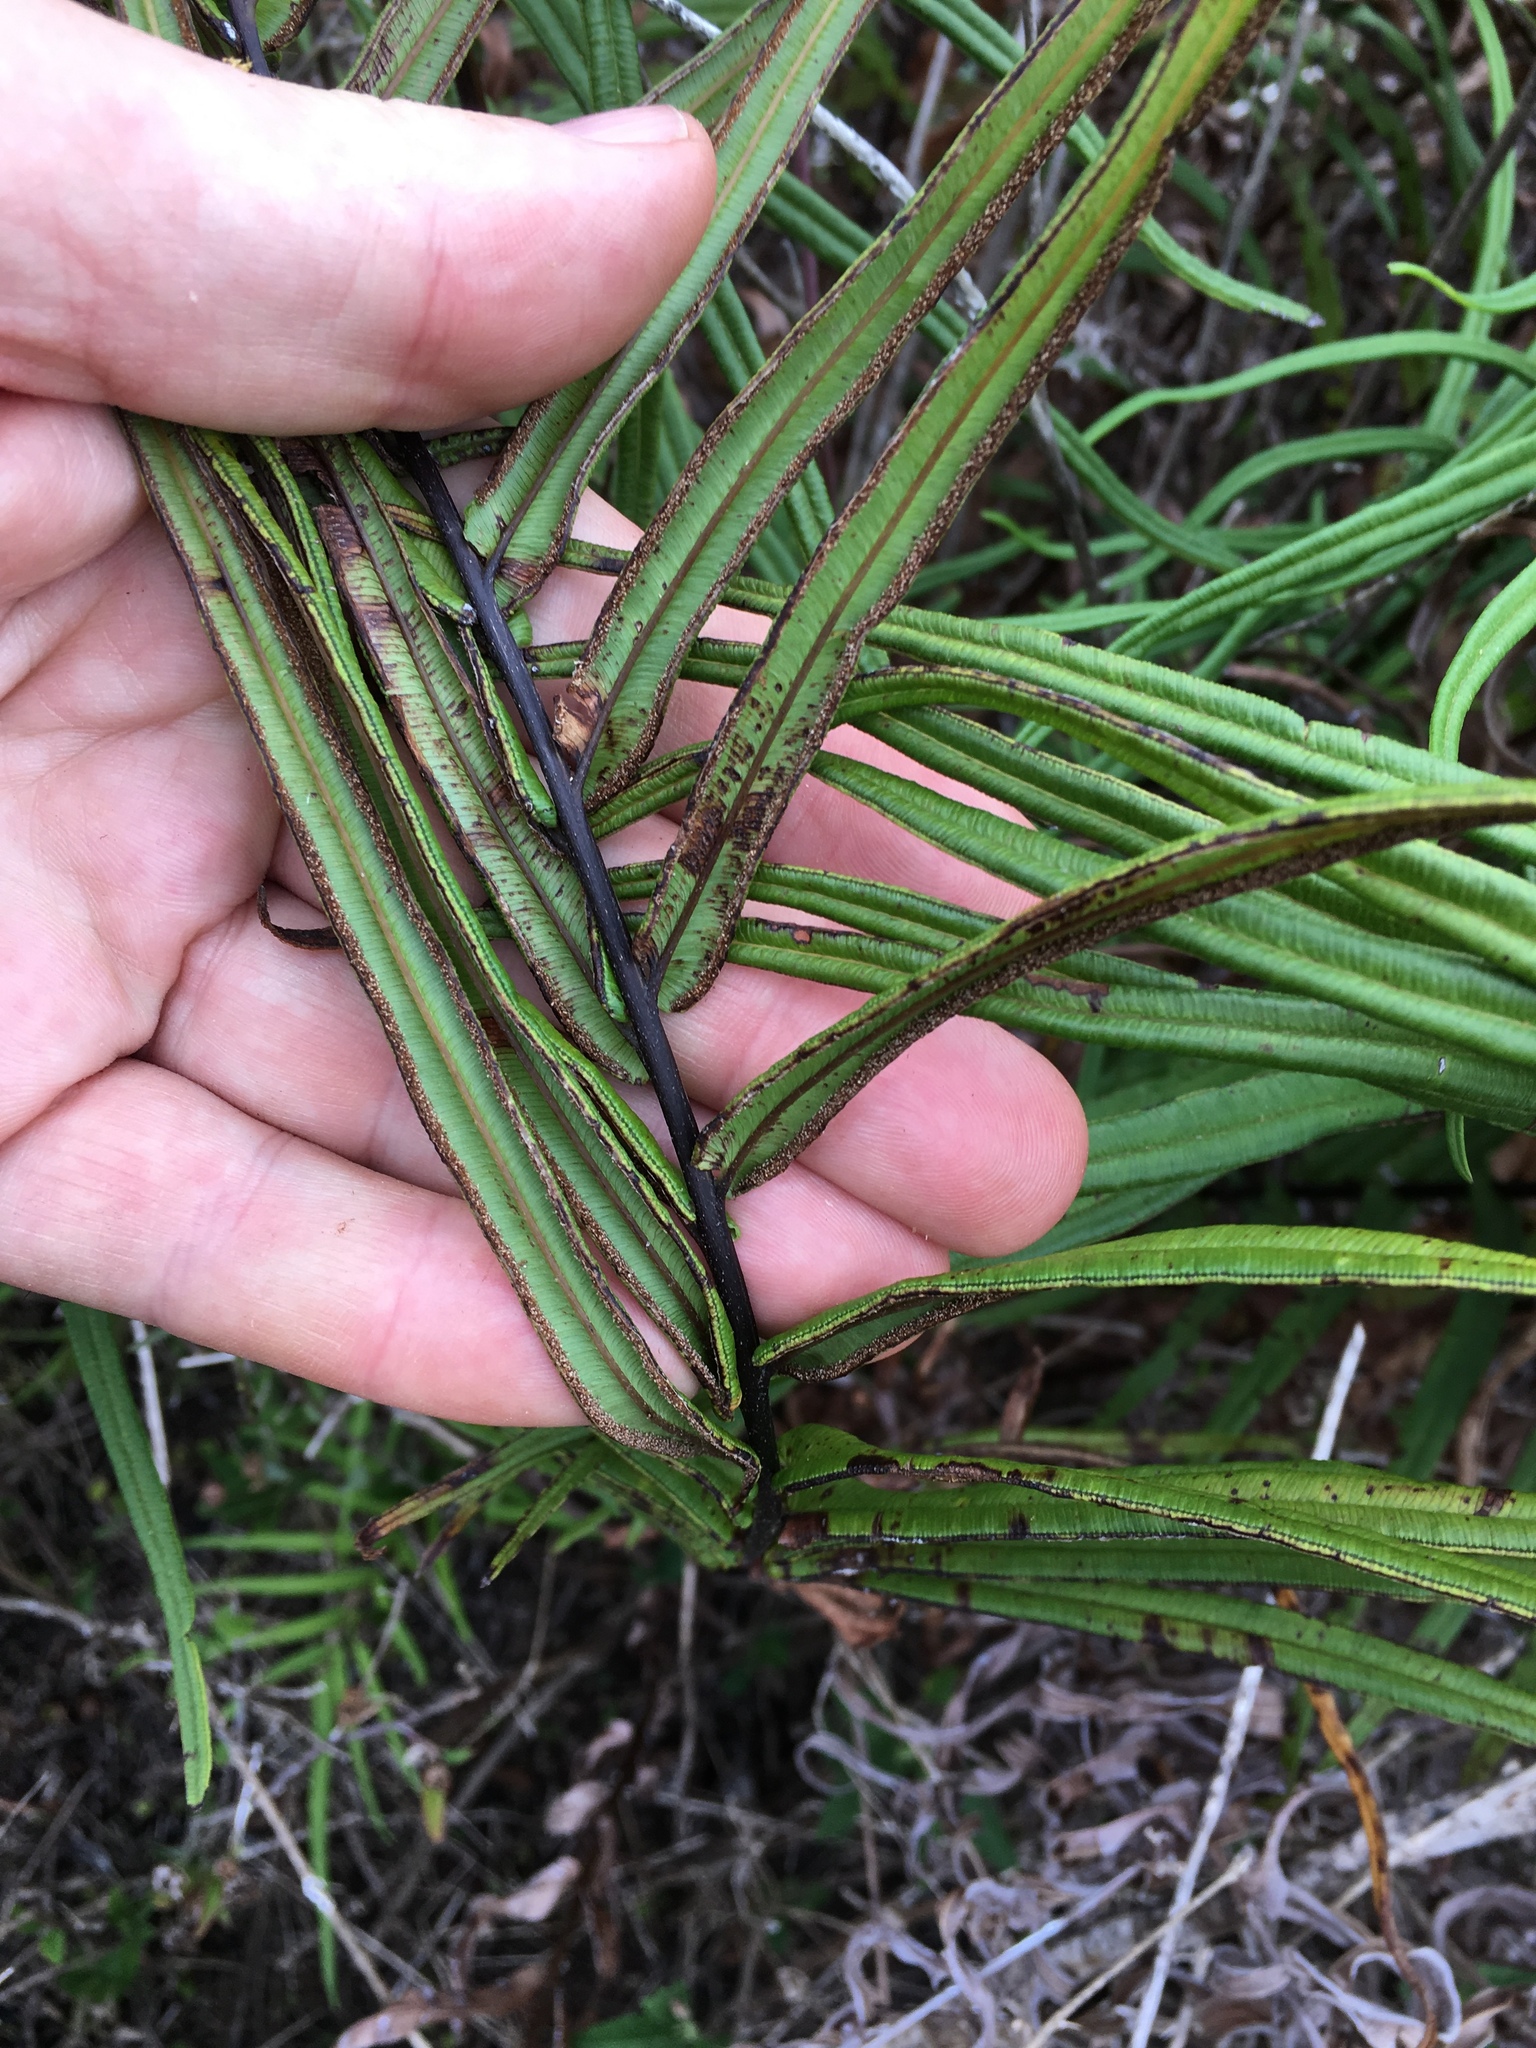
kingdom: Plantae
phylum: Tracheophyta
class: Polypodiopsida
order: Polypodiales
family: Pteridaceae
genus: Pteris
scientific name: Pteris vittata
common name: Ladder brake
